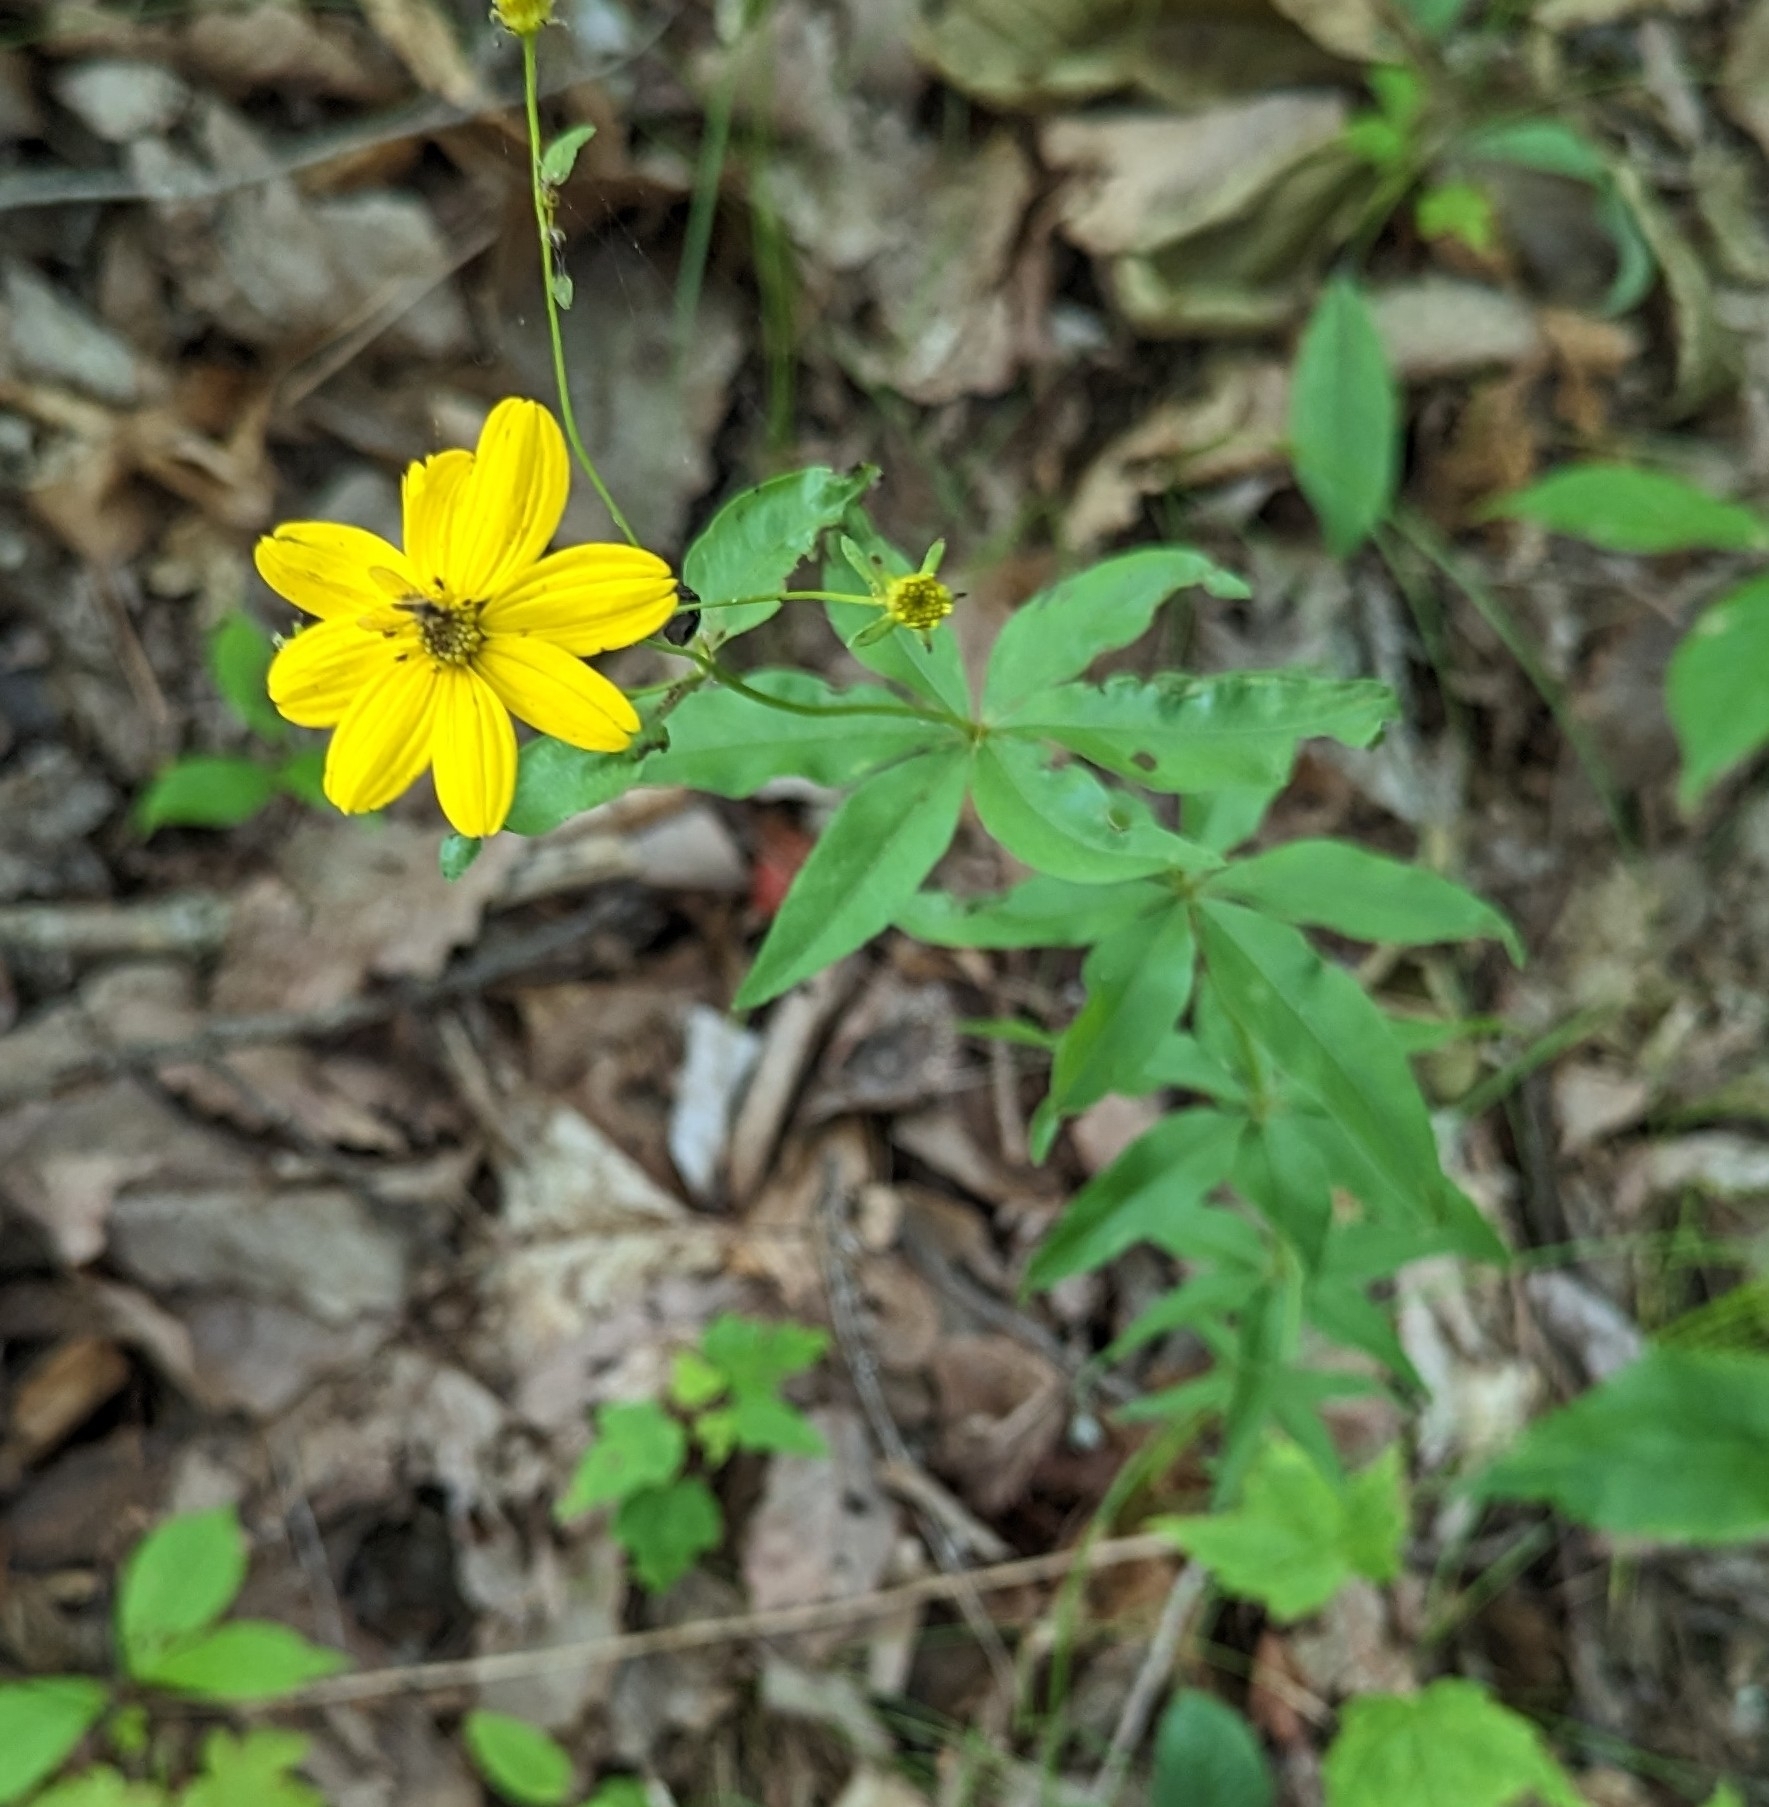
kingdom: Plantae
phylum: Tracheophyta
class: Magnoliopsida
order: Asterales
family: Asteraceae
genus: Coreopsis
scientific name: Coreopsis major
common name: Forest tickseed
